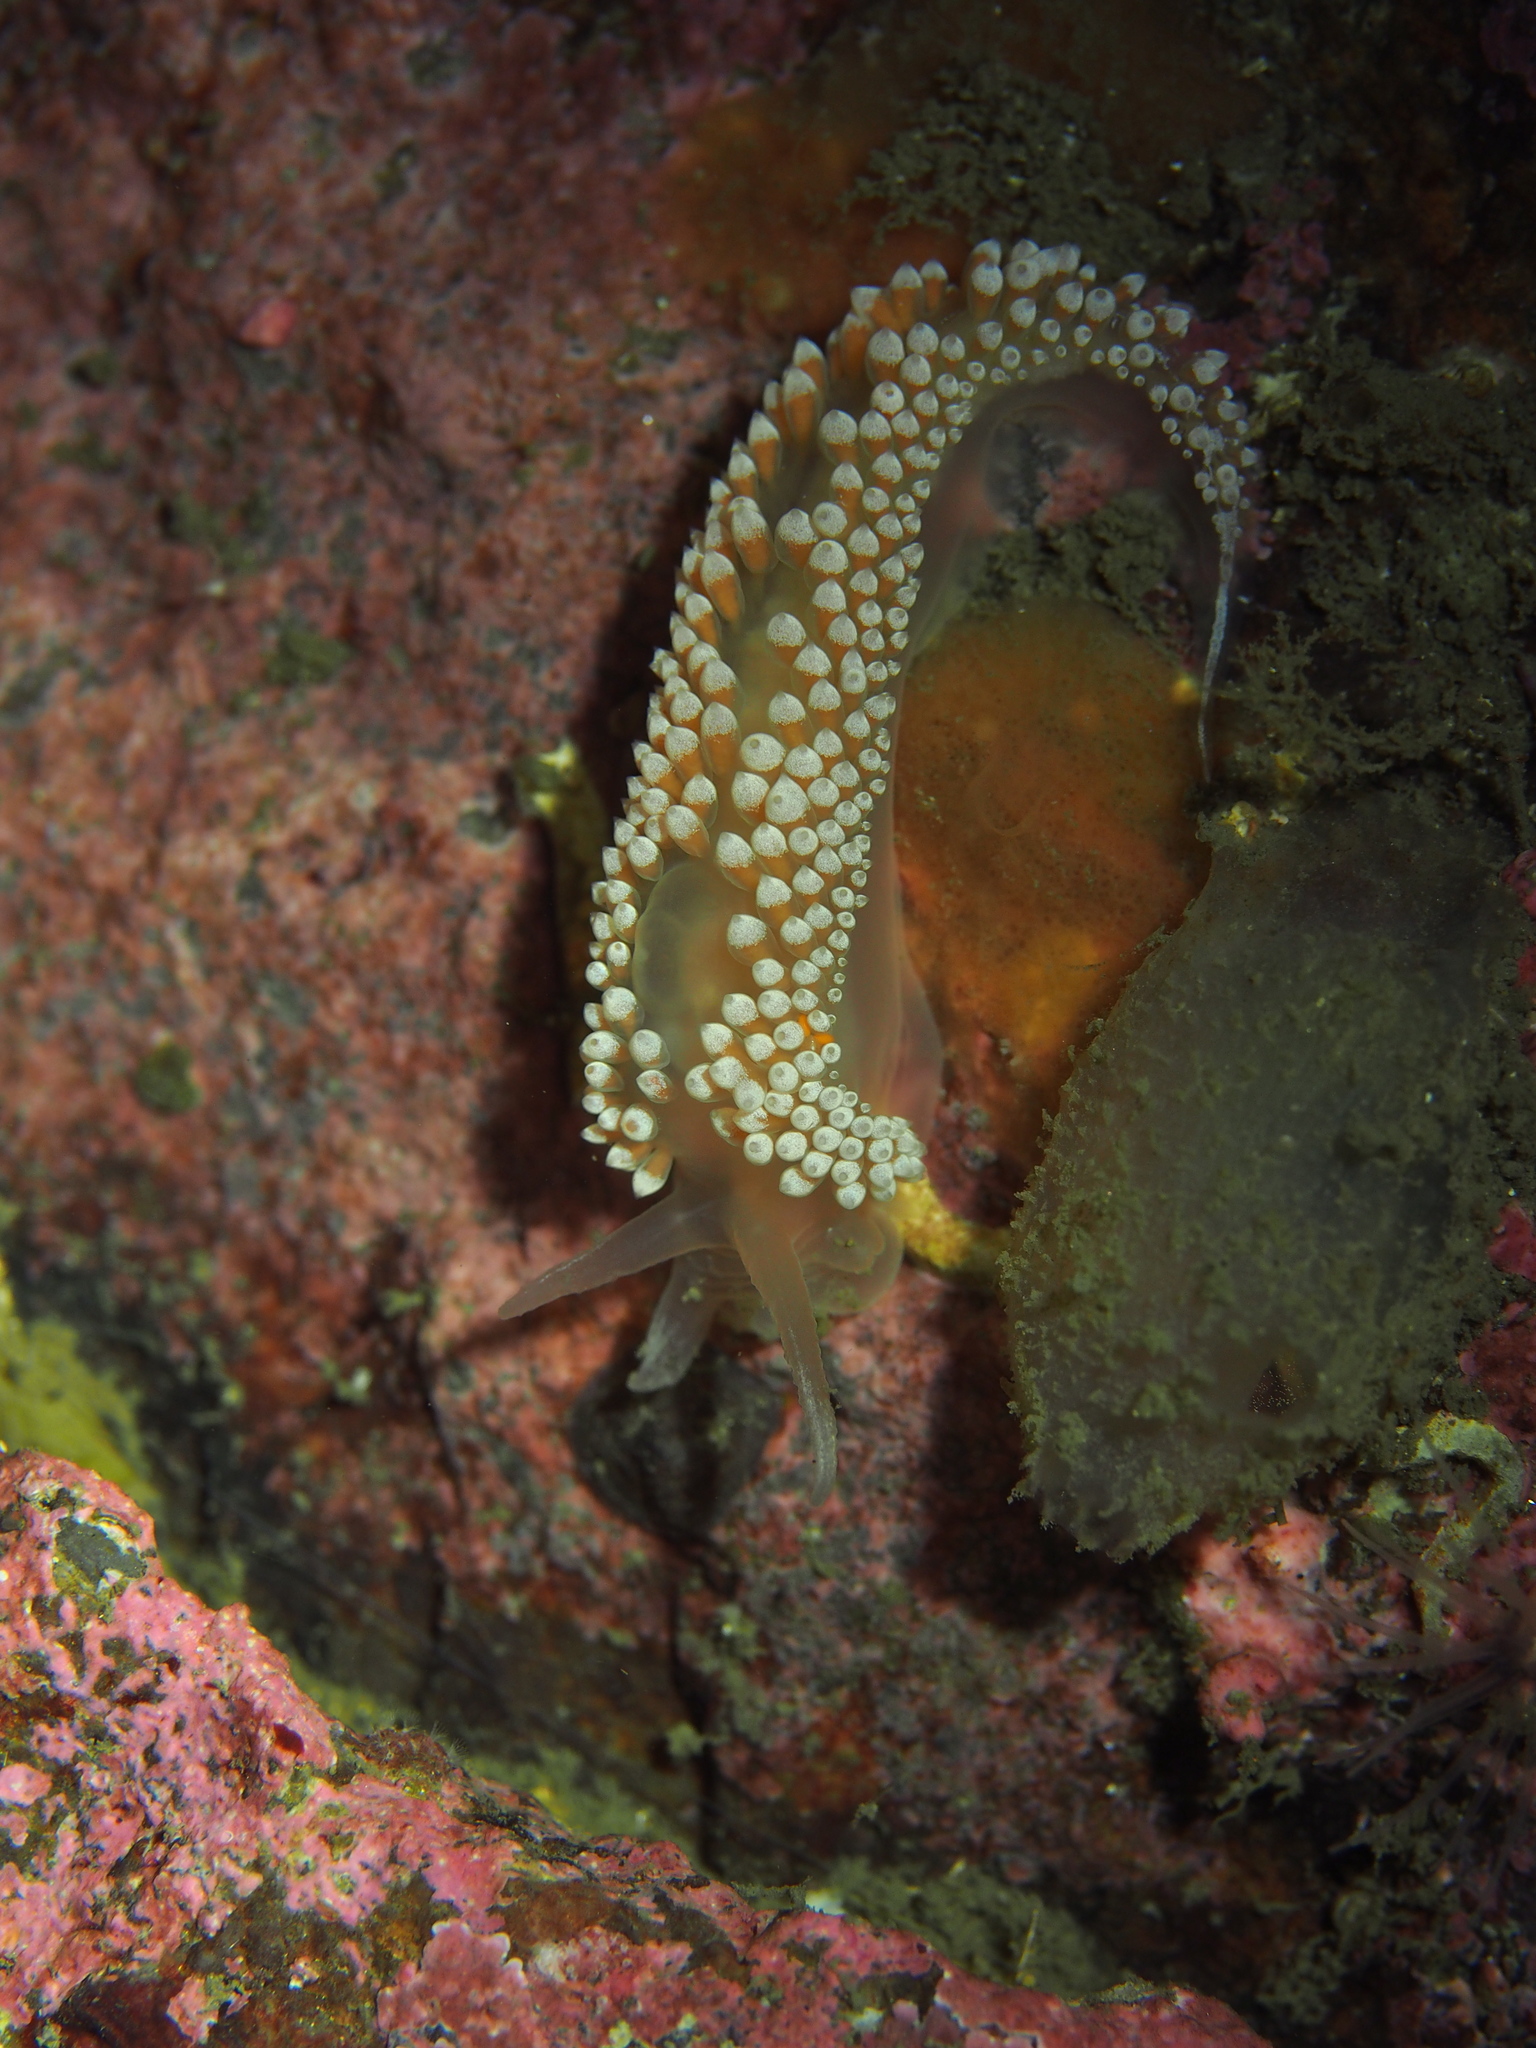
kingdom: Animalia
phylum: Mollusca
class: Gastropoda
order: Nudibranchia
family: Coryphellidae
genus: Coryphella
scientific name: Coryphella verrucosa
